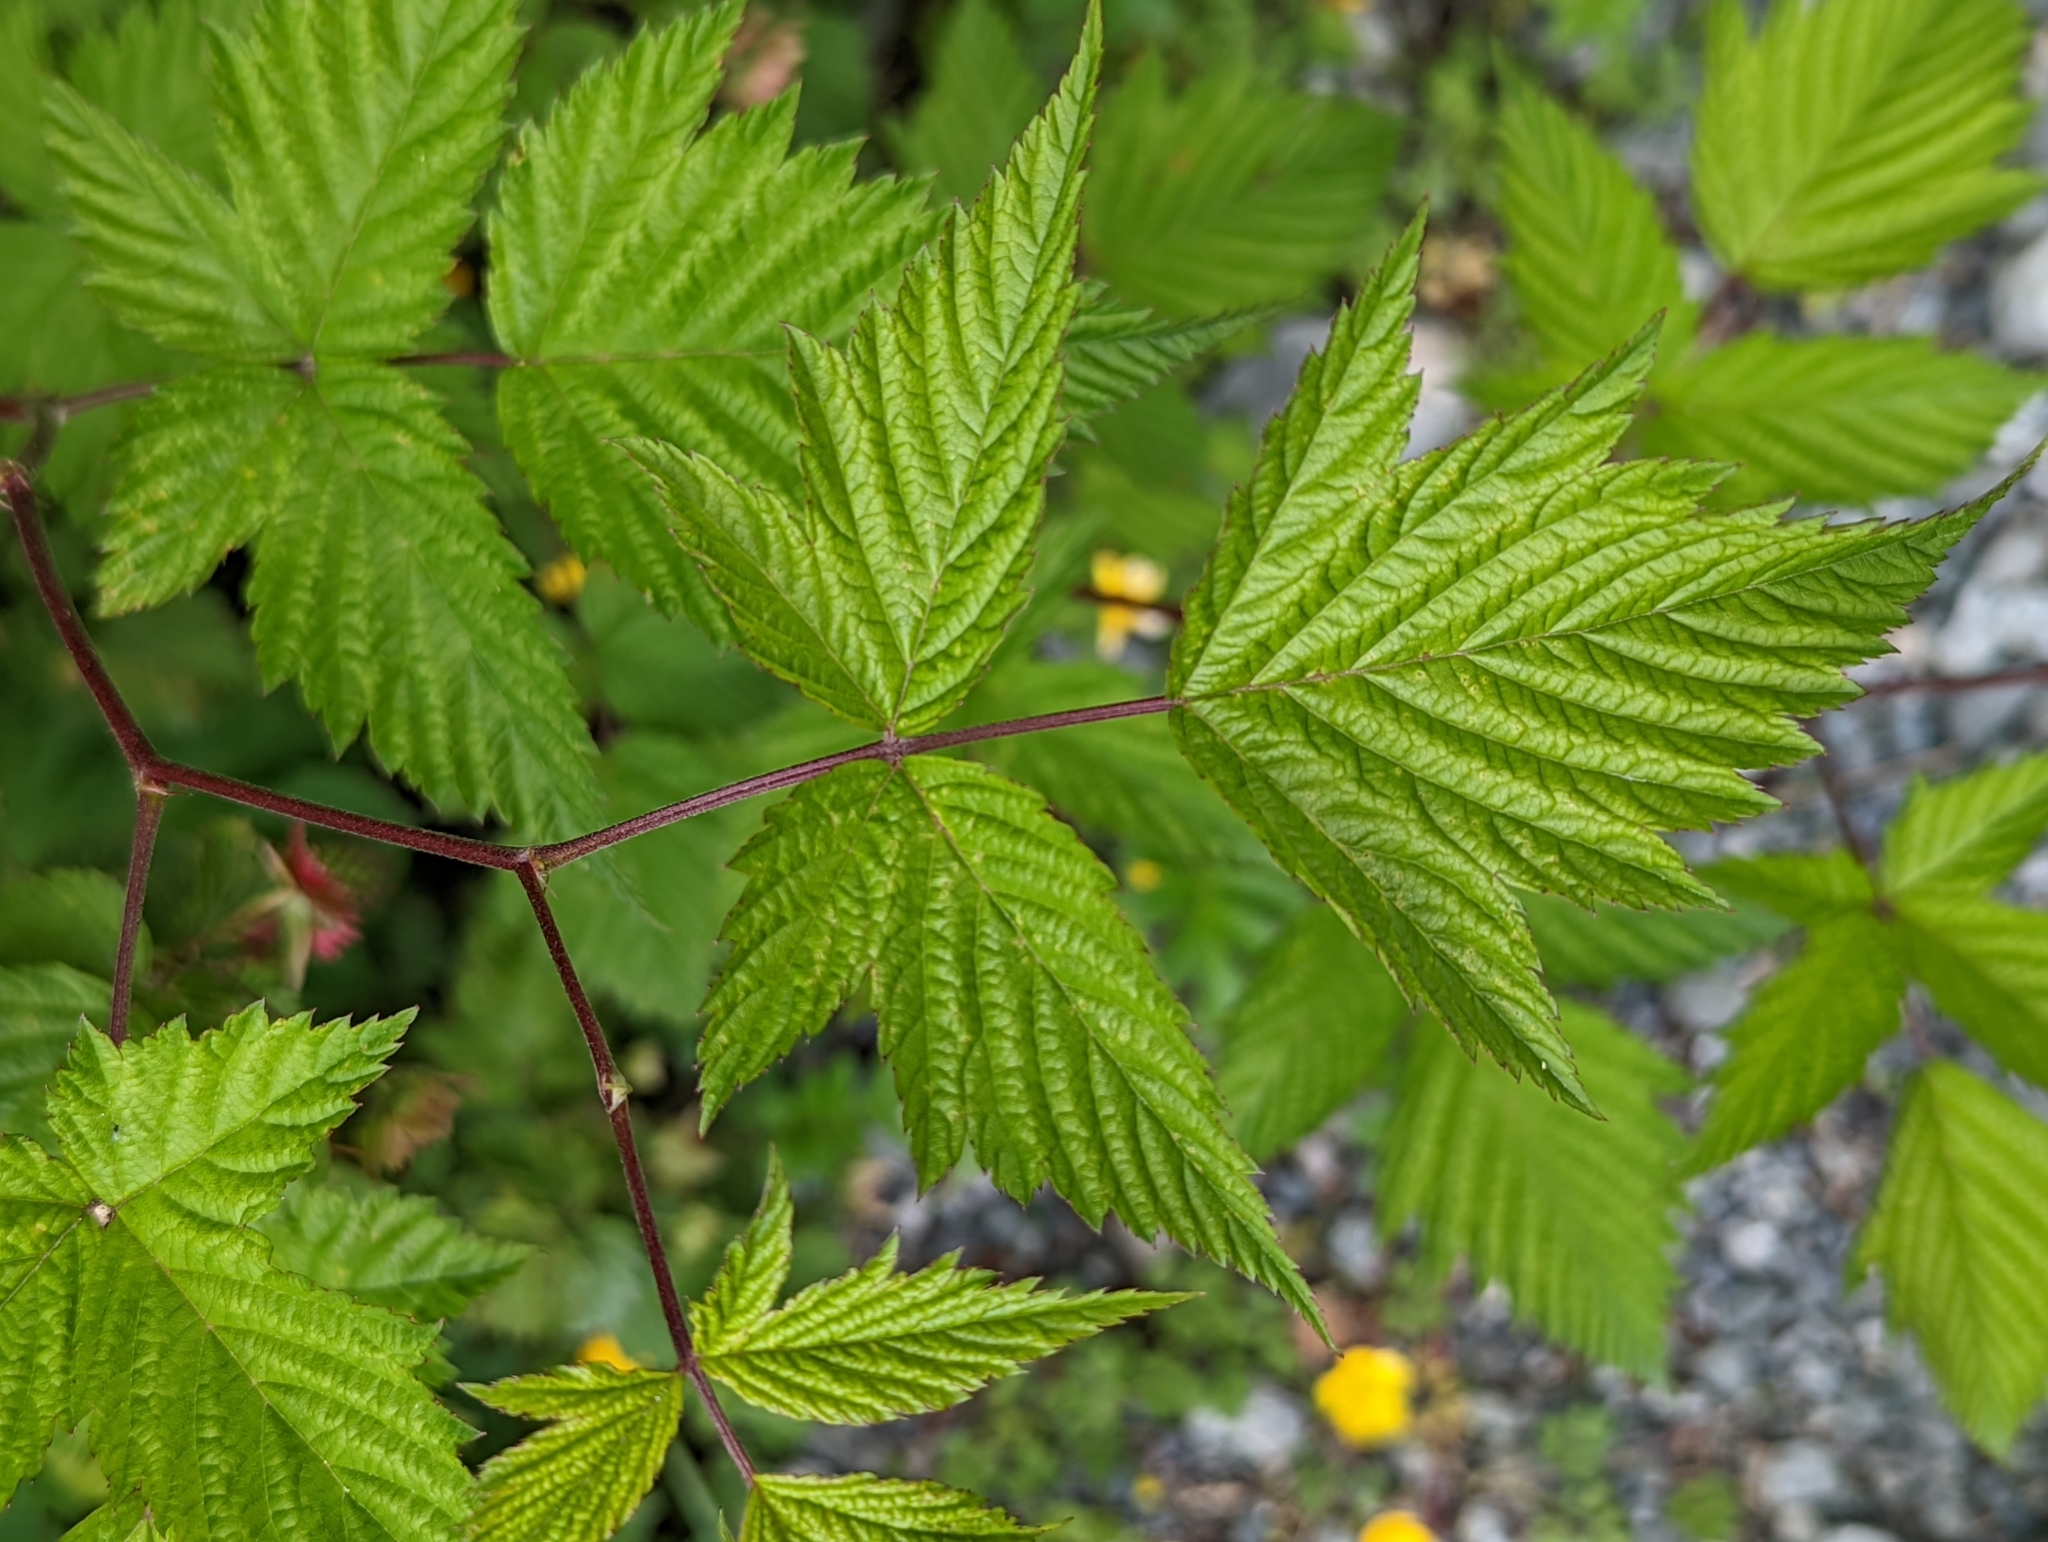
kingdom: Plantae
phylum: Tracheophyta
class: Magnoliopsida
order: Rosales
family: Rosaceae
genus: Rubus
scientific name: Rubus spectabilis
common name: Salmonberry
